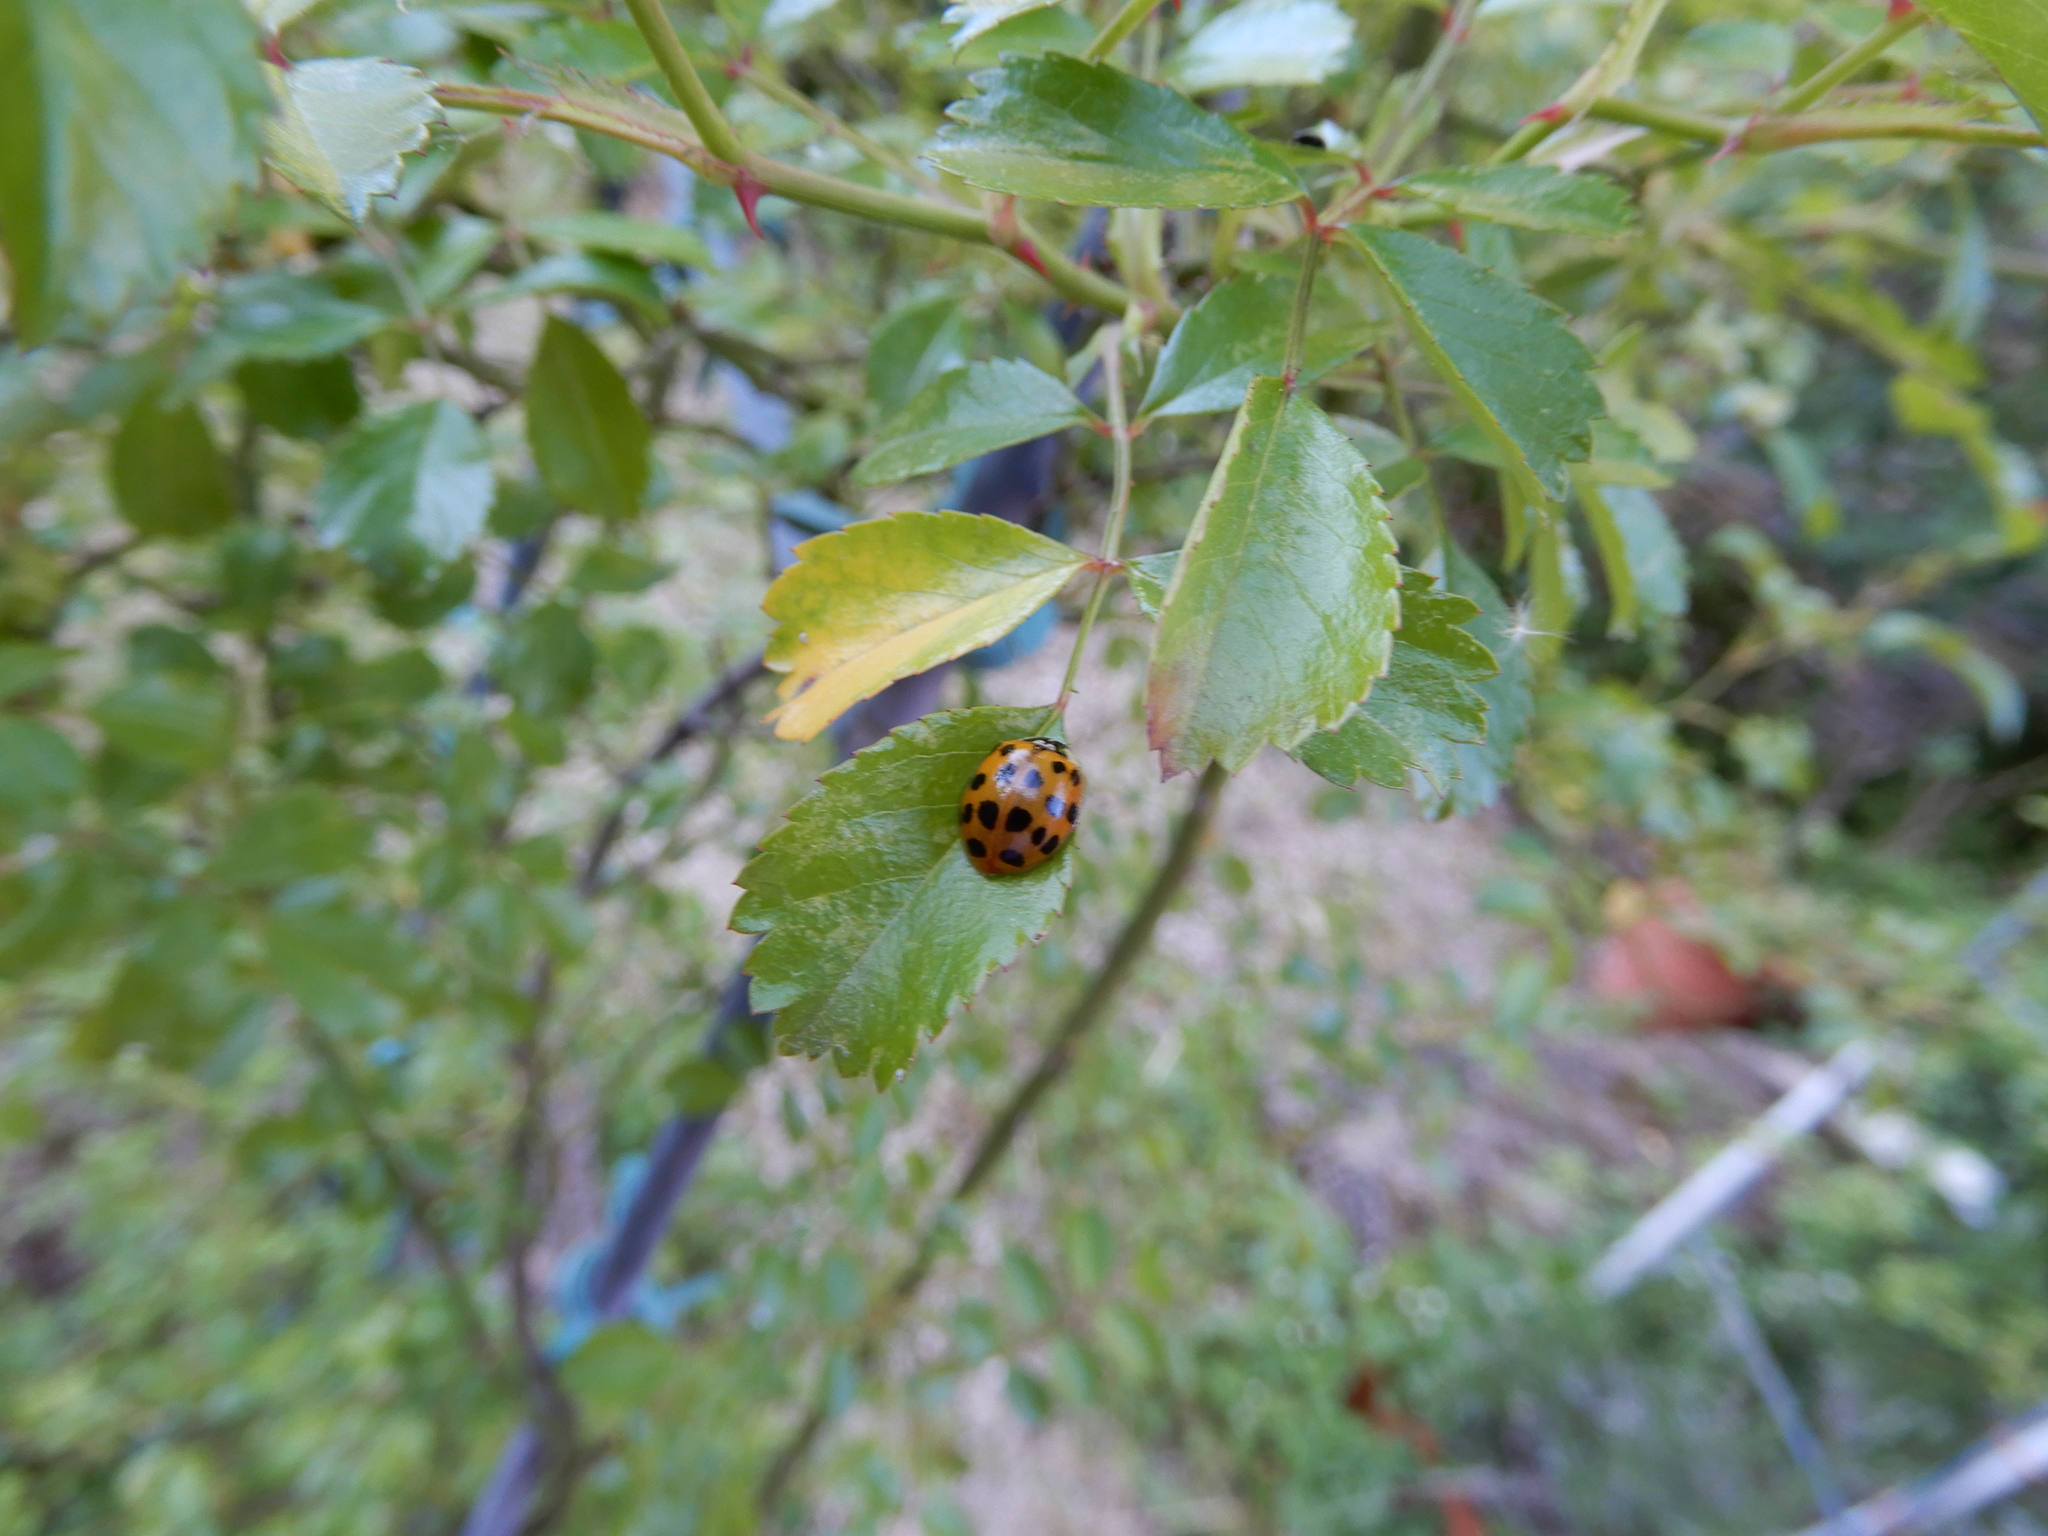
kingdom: Animalia
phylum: Arthropoda
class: Insecta
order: Coleoptera
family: Coccinellidae
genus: Harmonia
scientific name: Harmonia axyridis
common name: Harlequin ladybird
